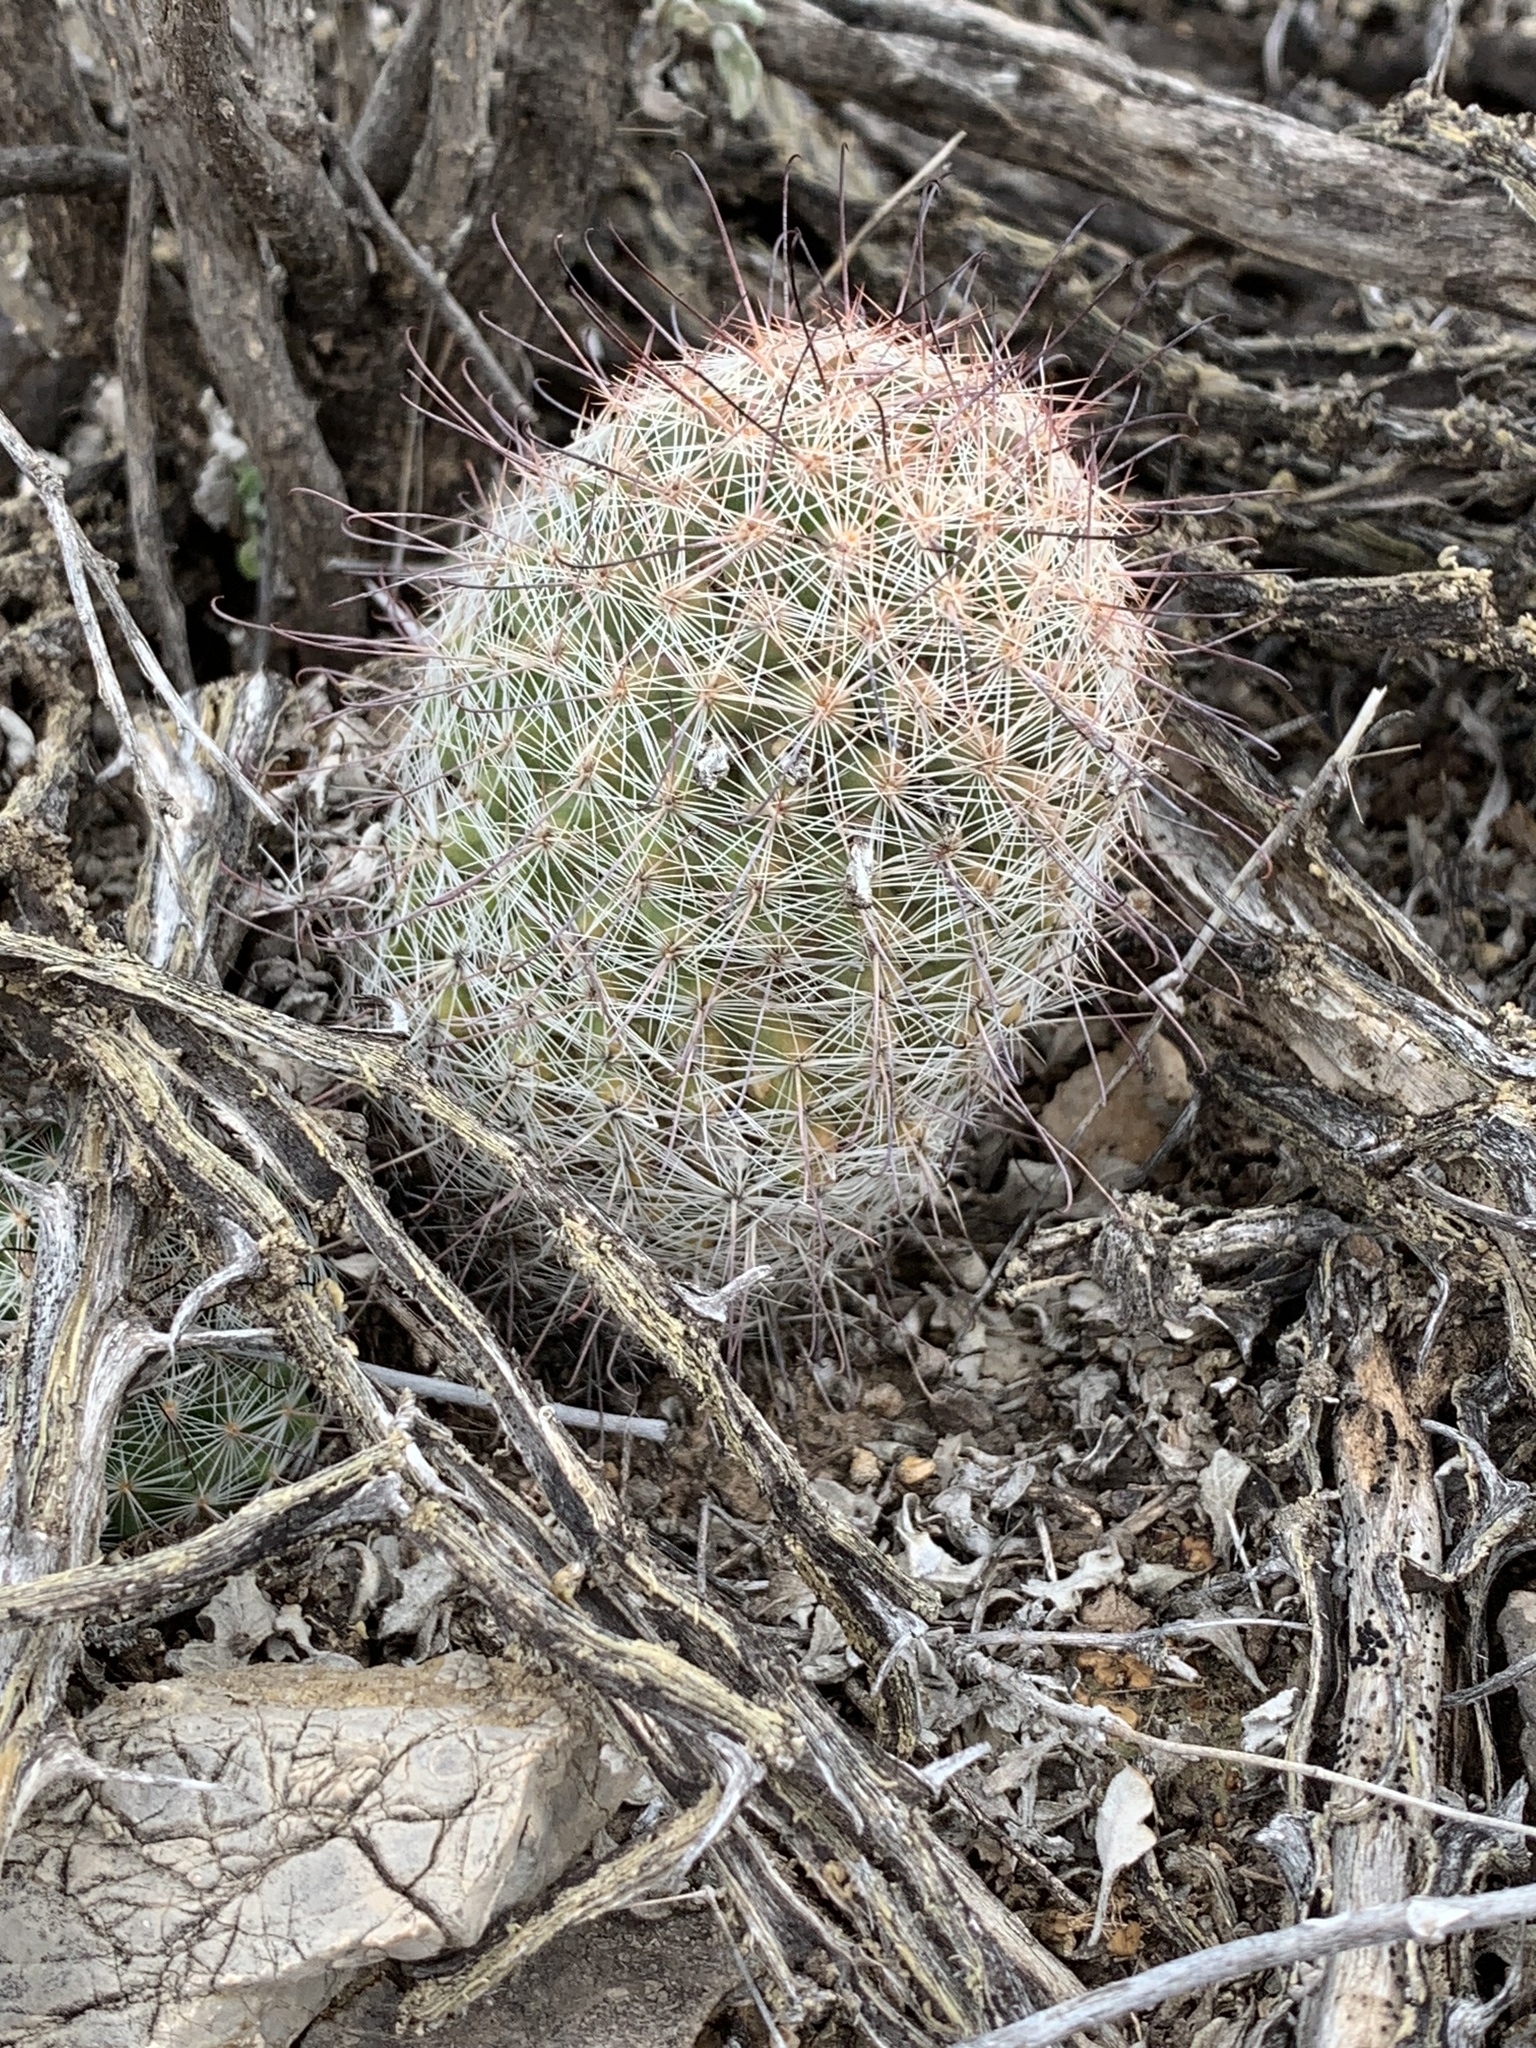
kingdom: Plantae
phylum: Tracheophyta
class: Magnoliopsida
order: Caryophyllales
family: Cactaceae
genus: Cochemiea
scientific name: Cochemiea grahamii
